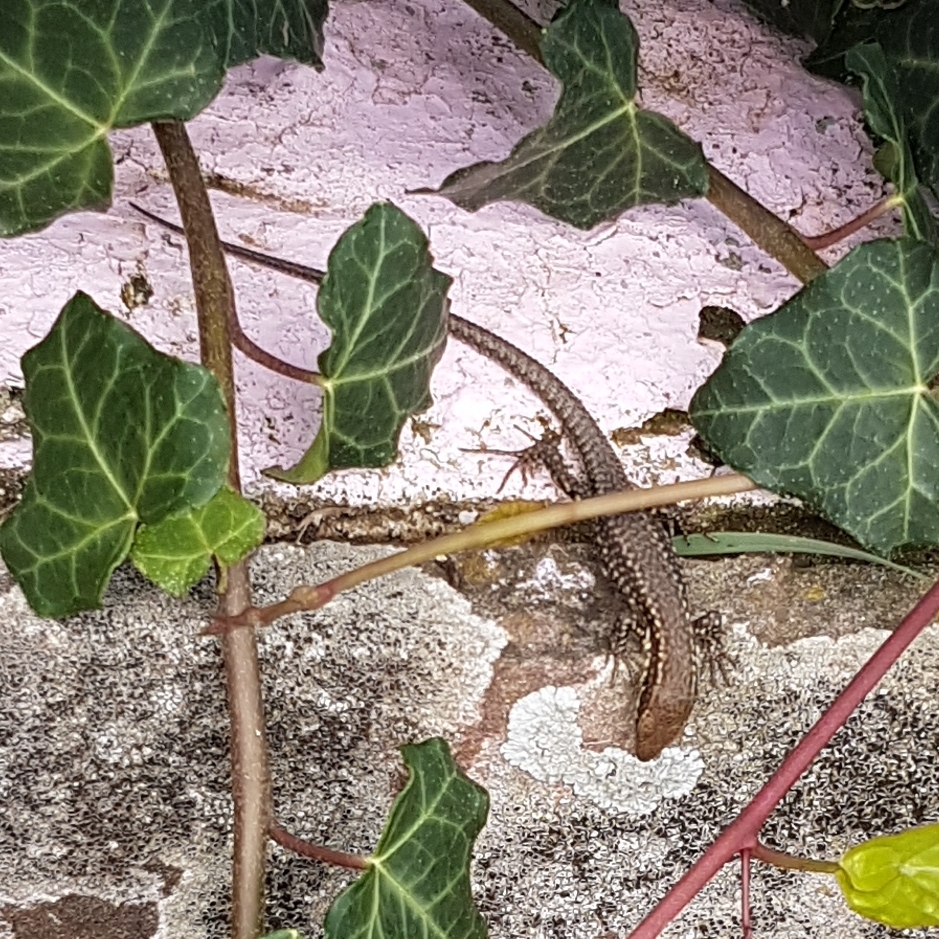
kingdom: Animalia
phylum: Chordata
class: Squamata
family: Lacertidae
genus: Podarcis
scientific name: Podarcis muralis
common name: Common wall lizard
